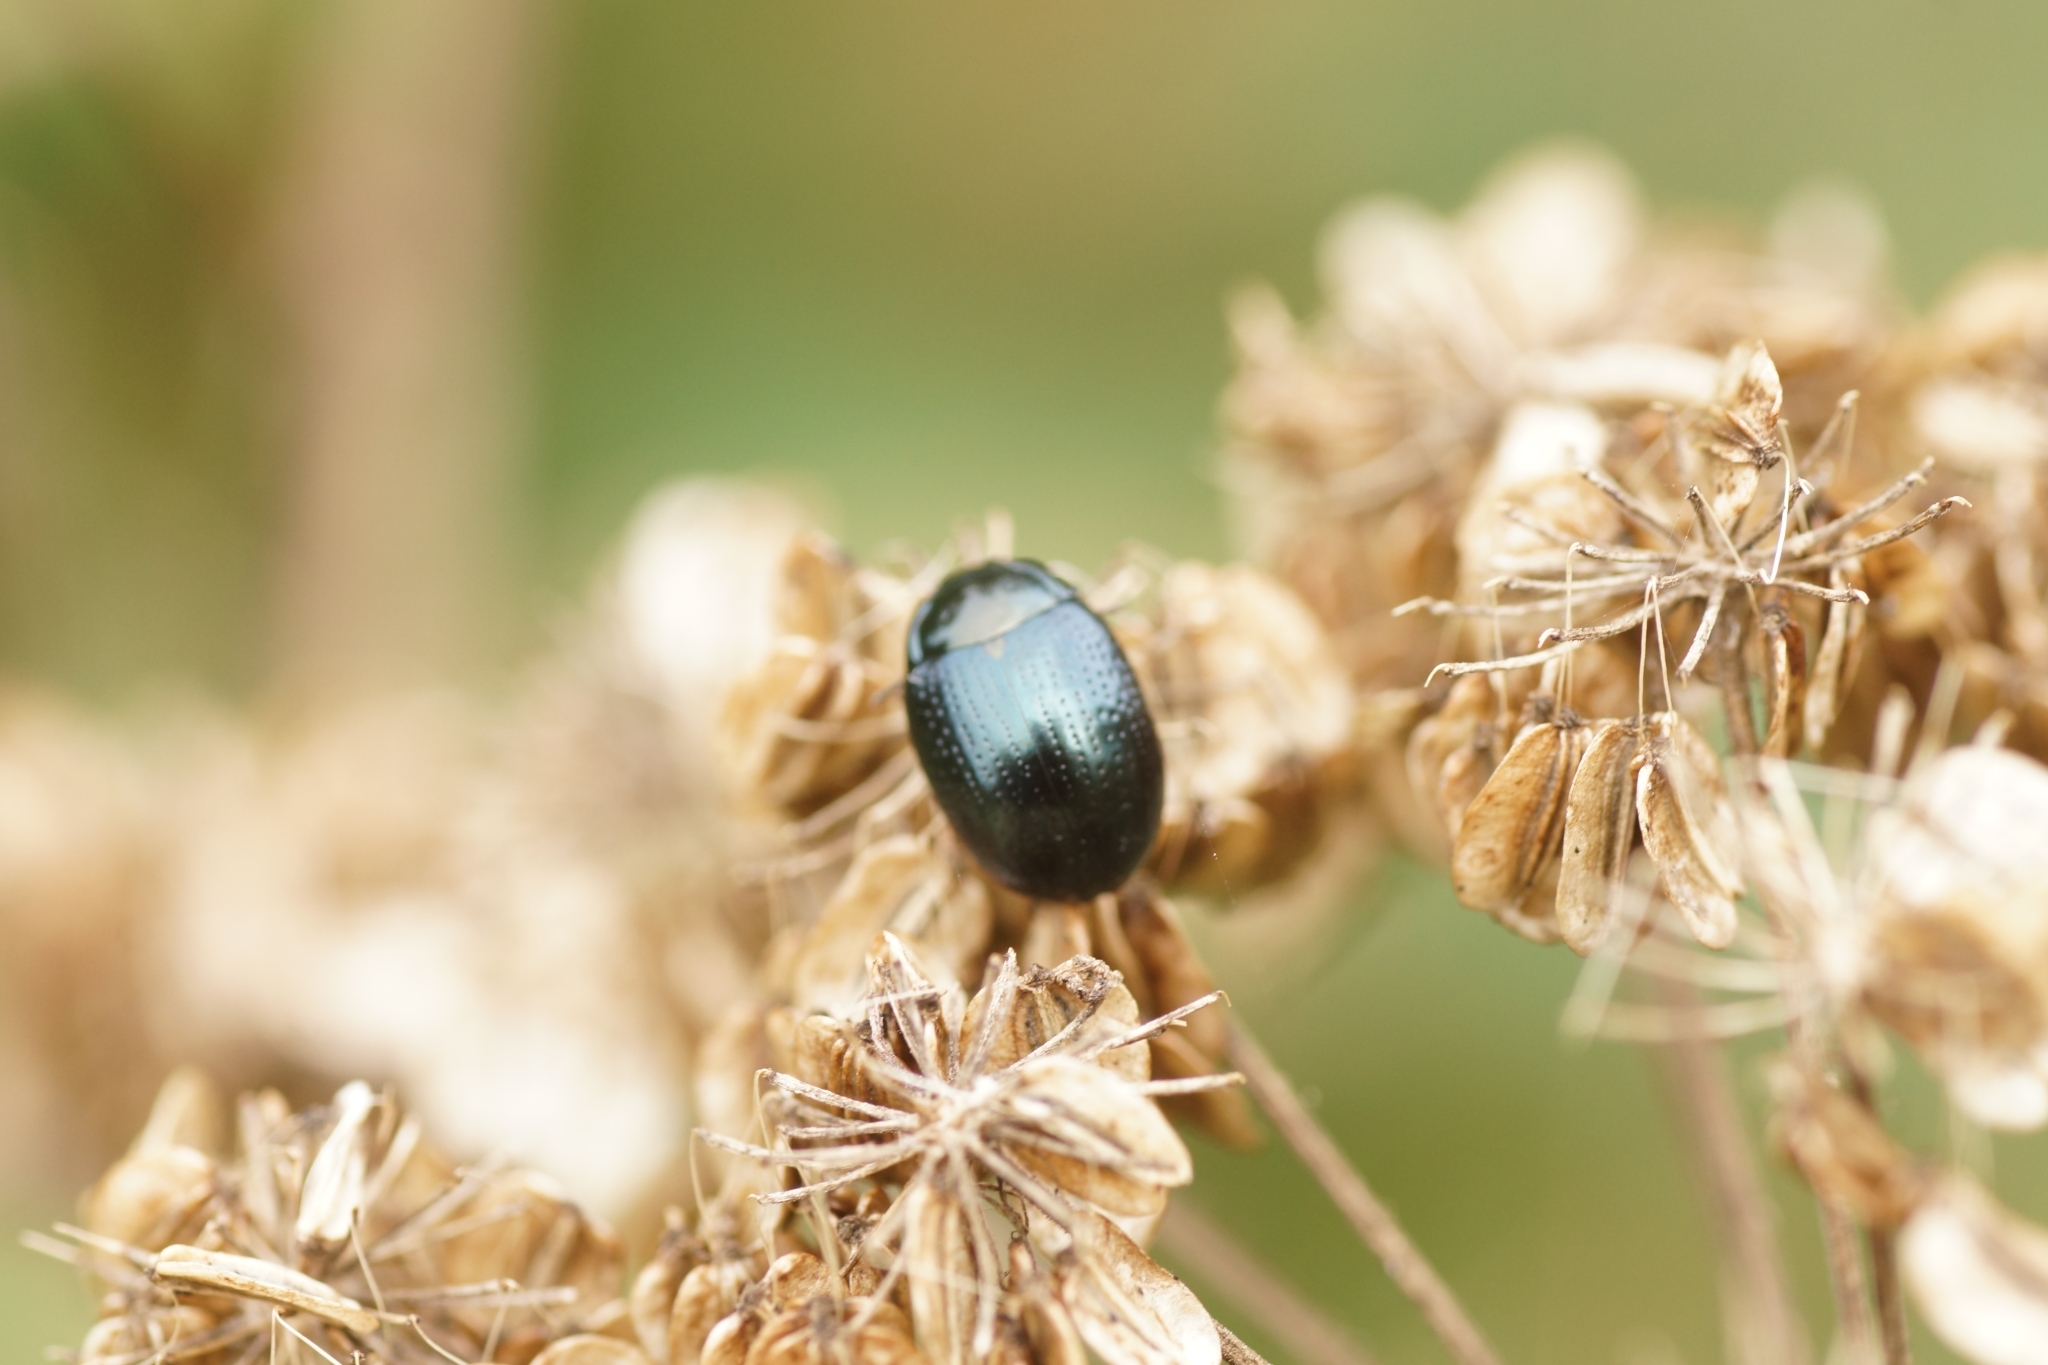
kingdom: Animalia
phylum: Arthropoda
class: Insecta
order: Coleoptera
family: Chrysomelidae
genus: Chrysolina
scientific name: Chrysolina oricalcia
